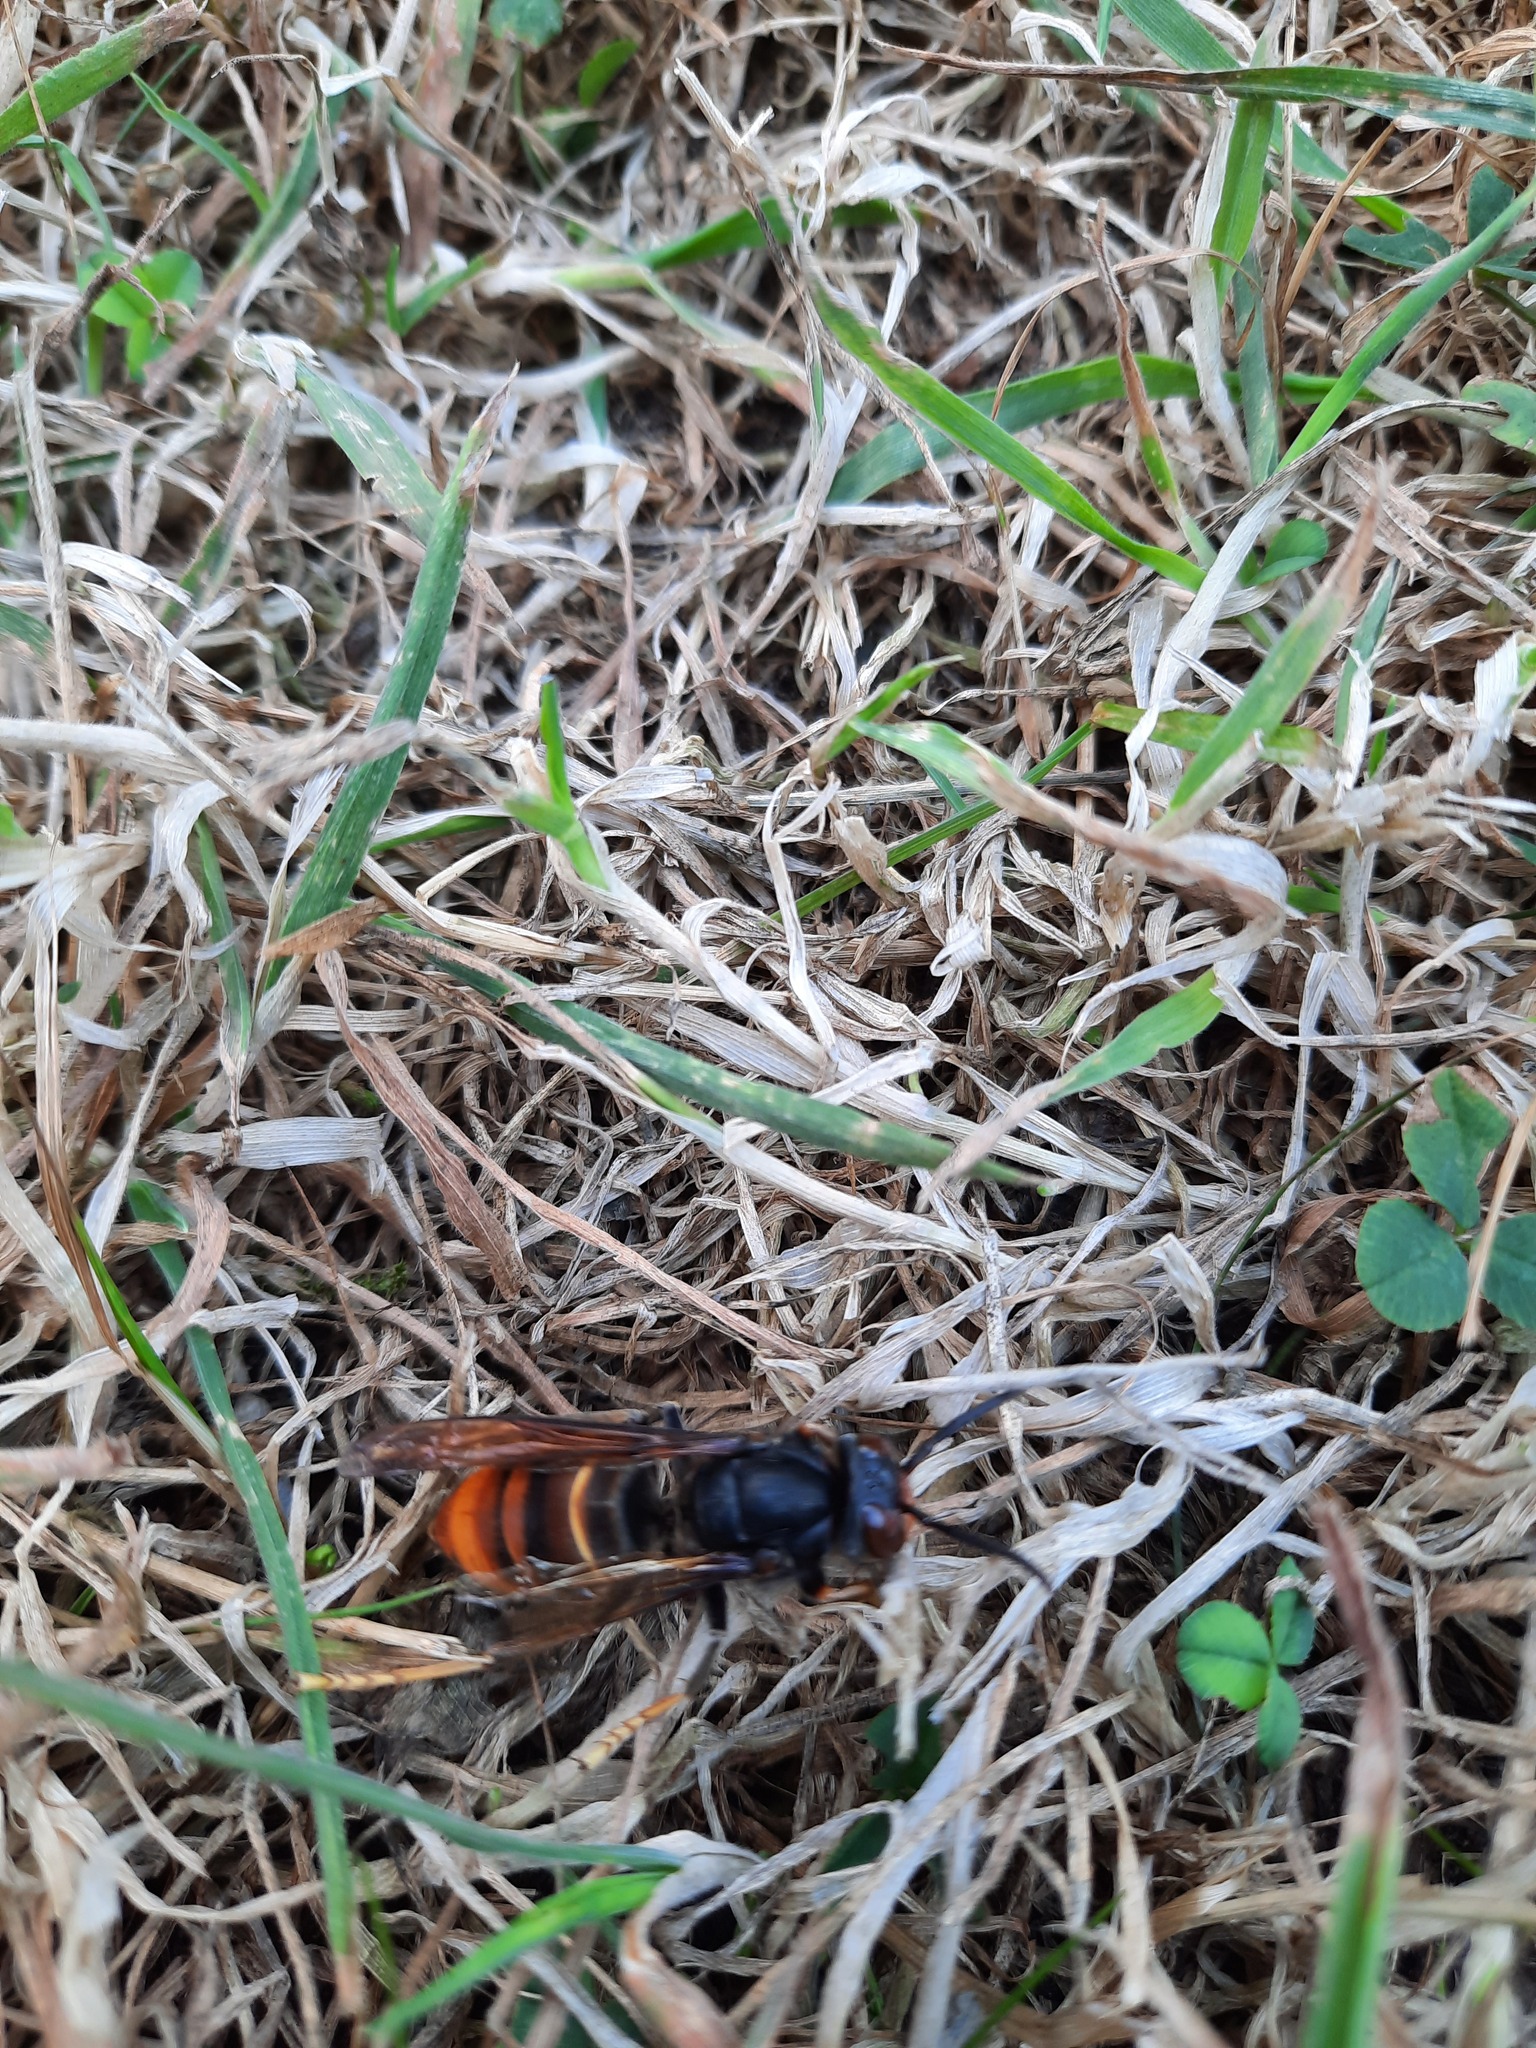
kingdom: Animalia
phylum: Arthropoda
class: Insecta
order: Hymenoptera
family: Vespidae
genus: Vespa
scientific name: Vespa velutina
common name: Asian hornet
